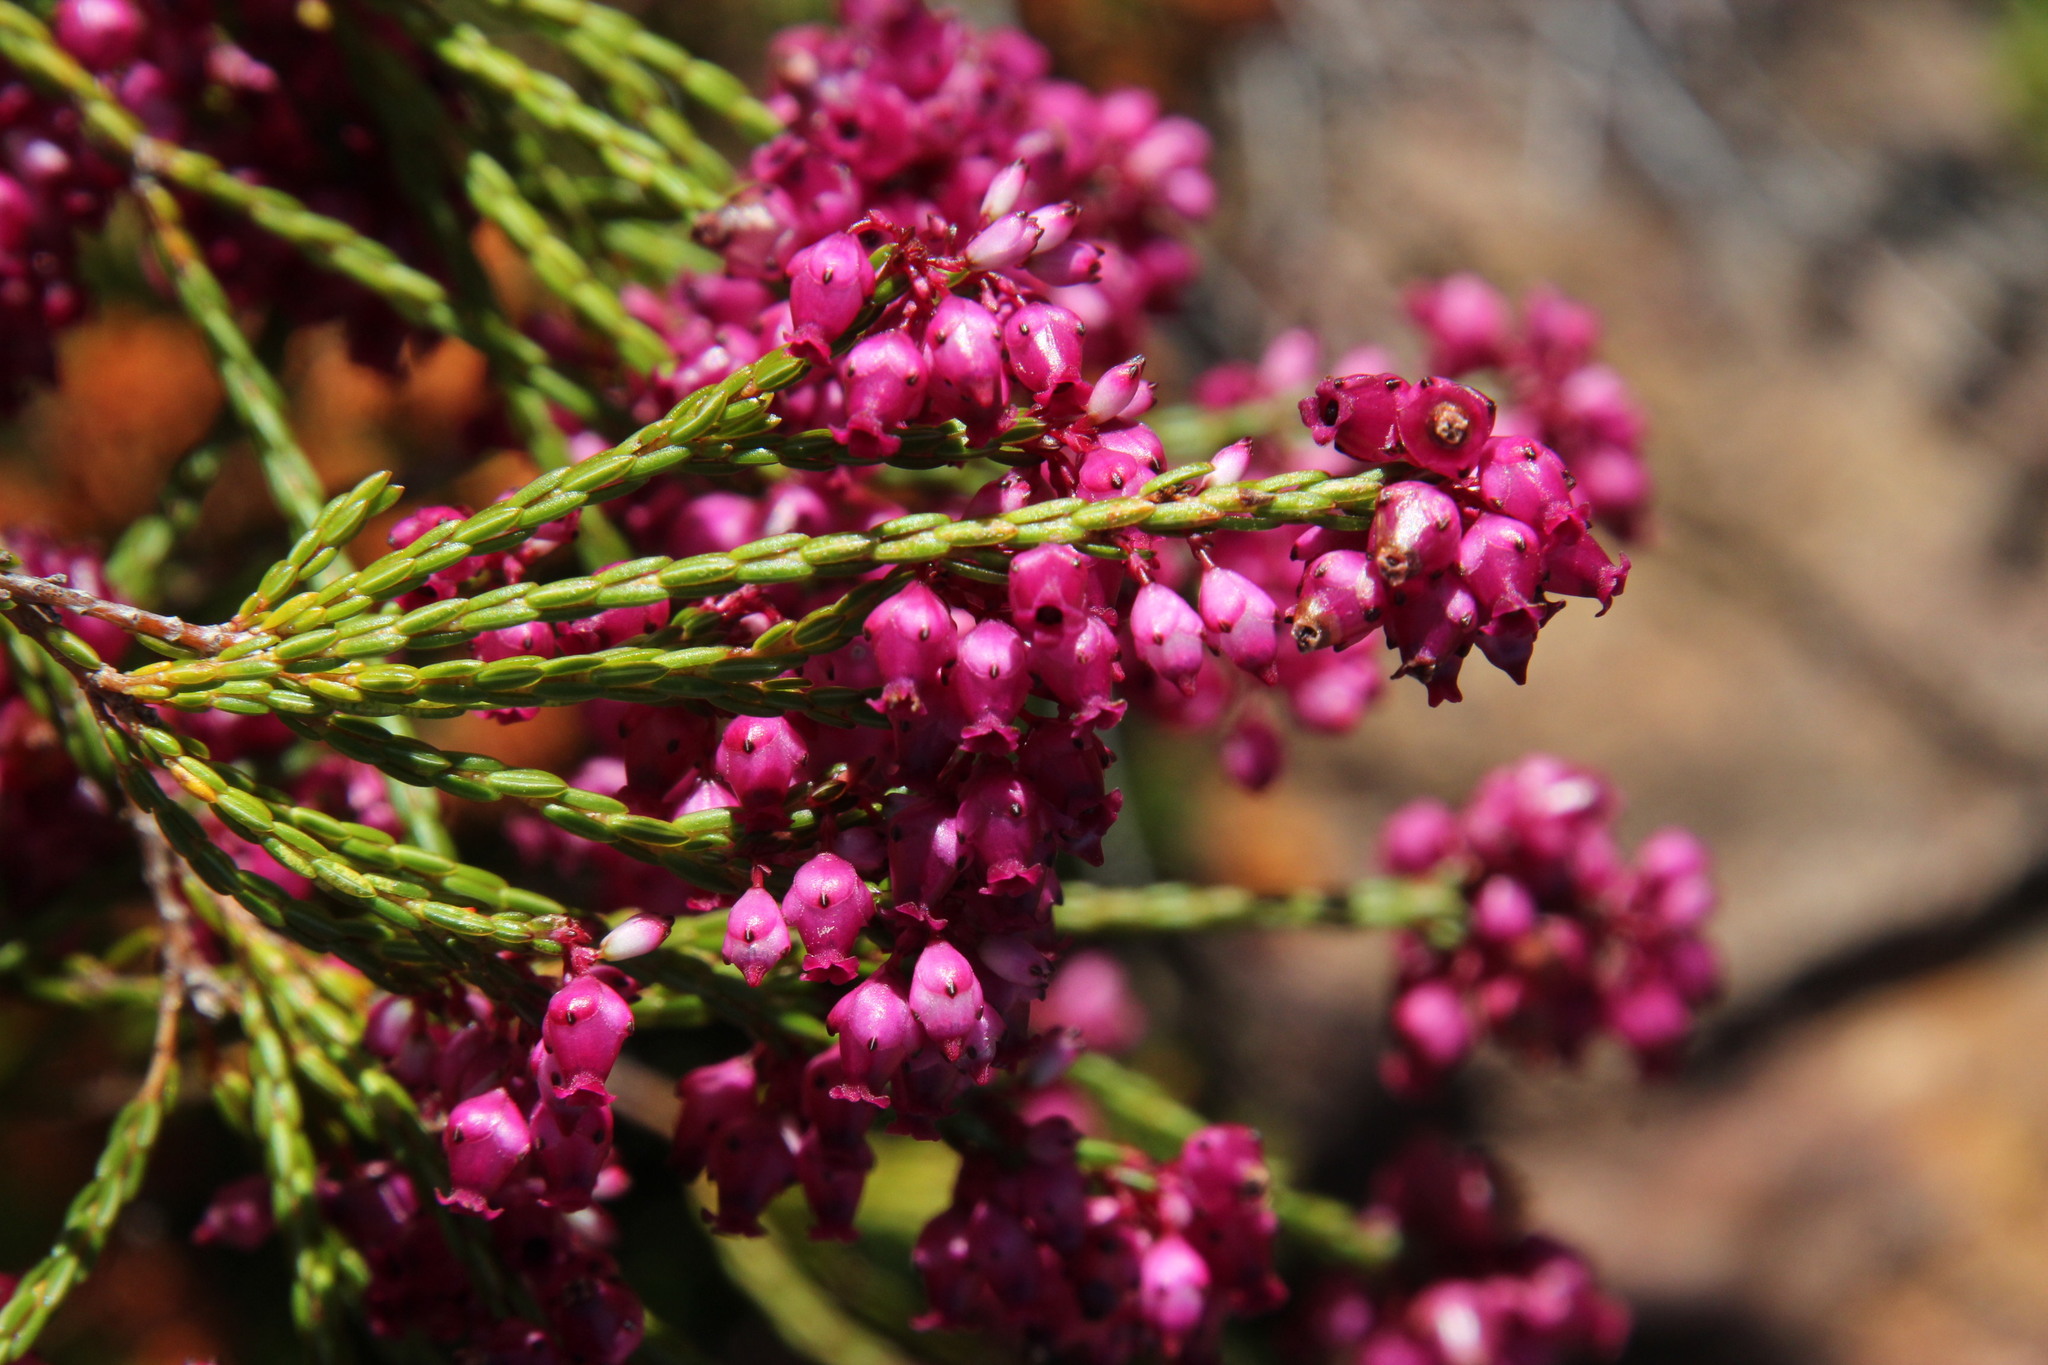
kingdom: Plantae
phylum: Tracheophyta
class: Magnoliopsida
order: Ericales
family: Ericaceae
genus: Erica
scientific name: Erica rhopalantha
